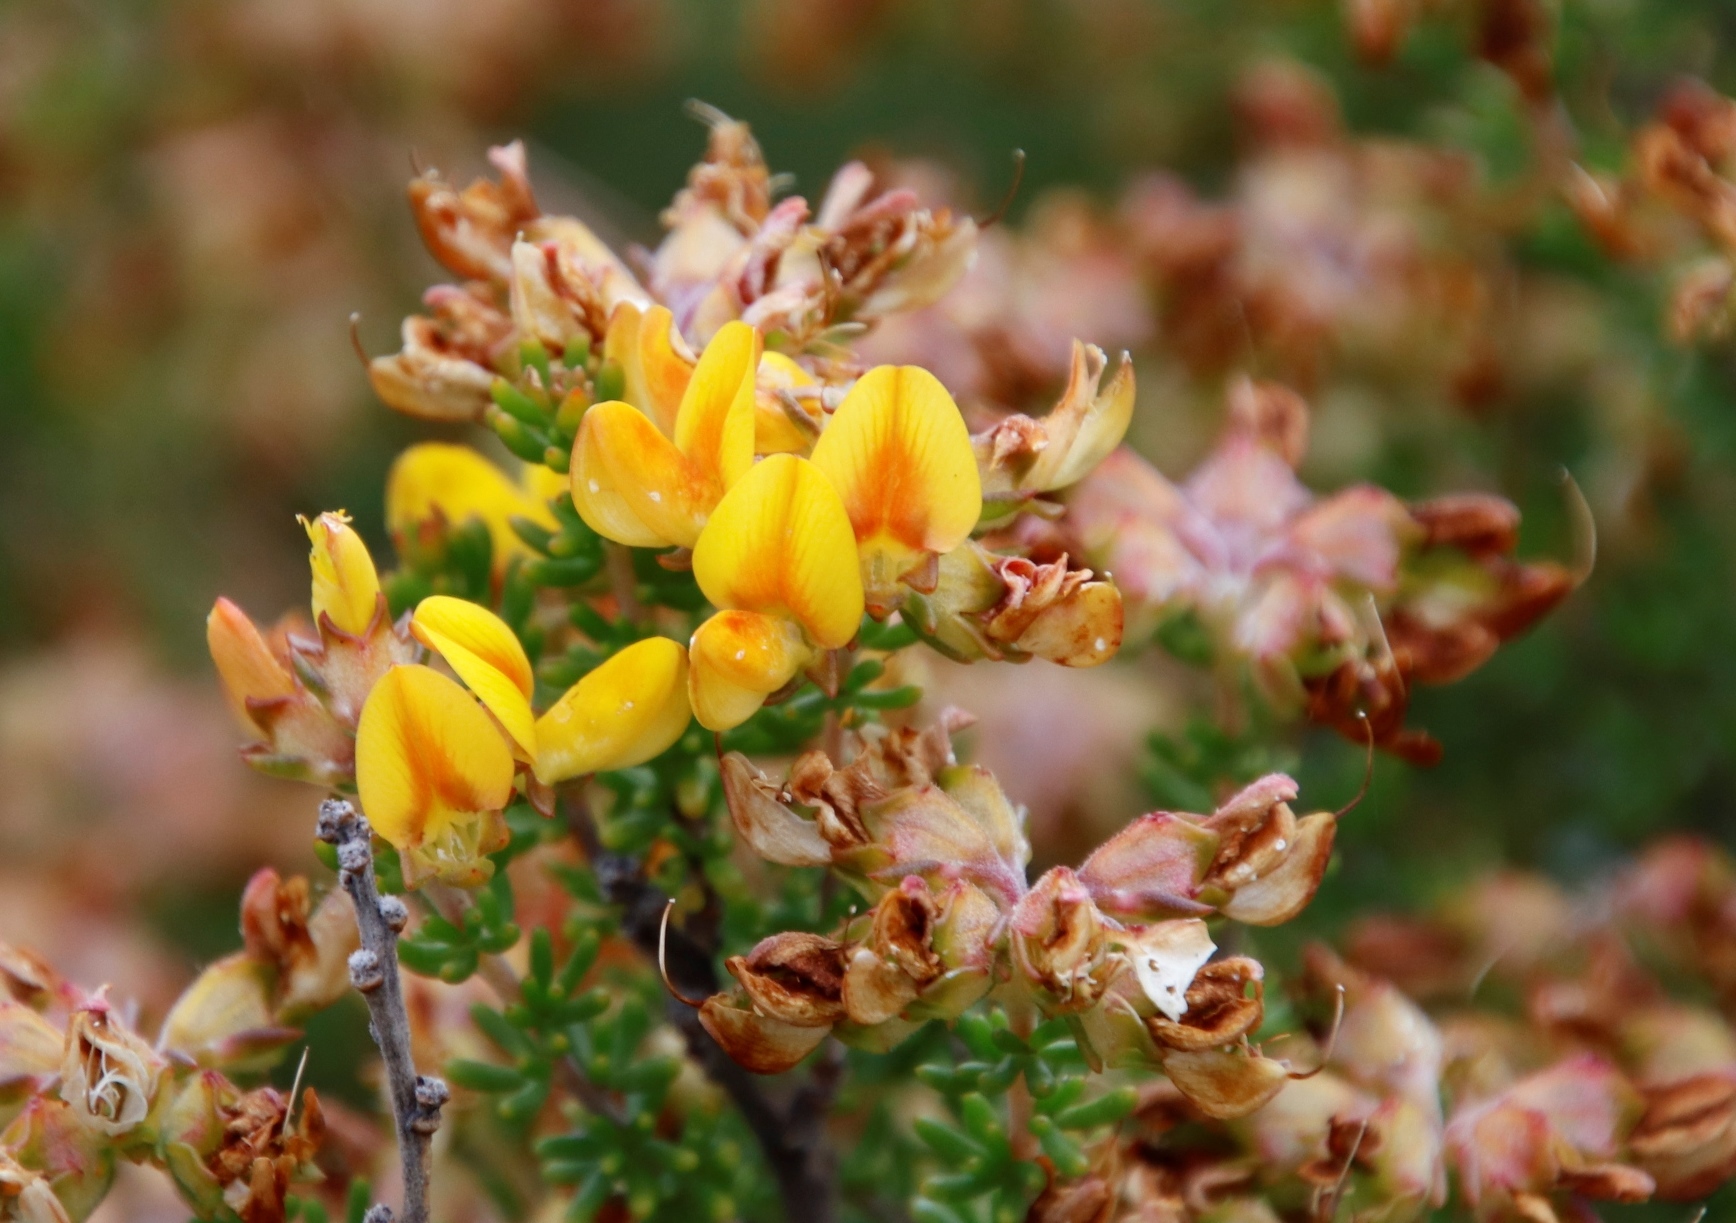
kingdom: Plantae
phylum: Tracheophyta
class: Magnoliopsida
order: Fabales
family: Fabaceae
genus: Aspalathus
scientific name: Aspalathus carnosa
